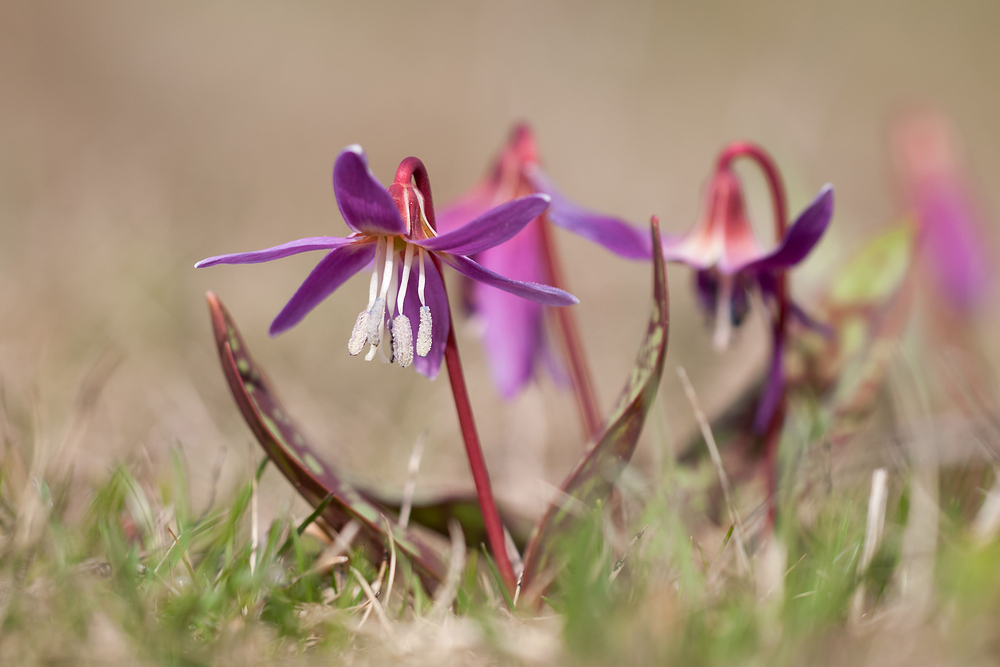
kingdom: Plantae
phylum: Tracheophyta
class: Liliopsida
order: Liliales
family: Liliaceae
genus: Erythronium
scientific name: Erythronium dens-canis
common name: Dog's-tooth-violet
